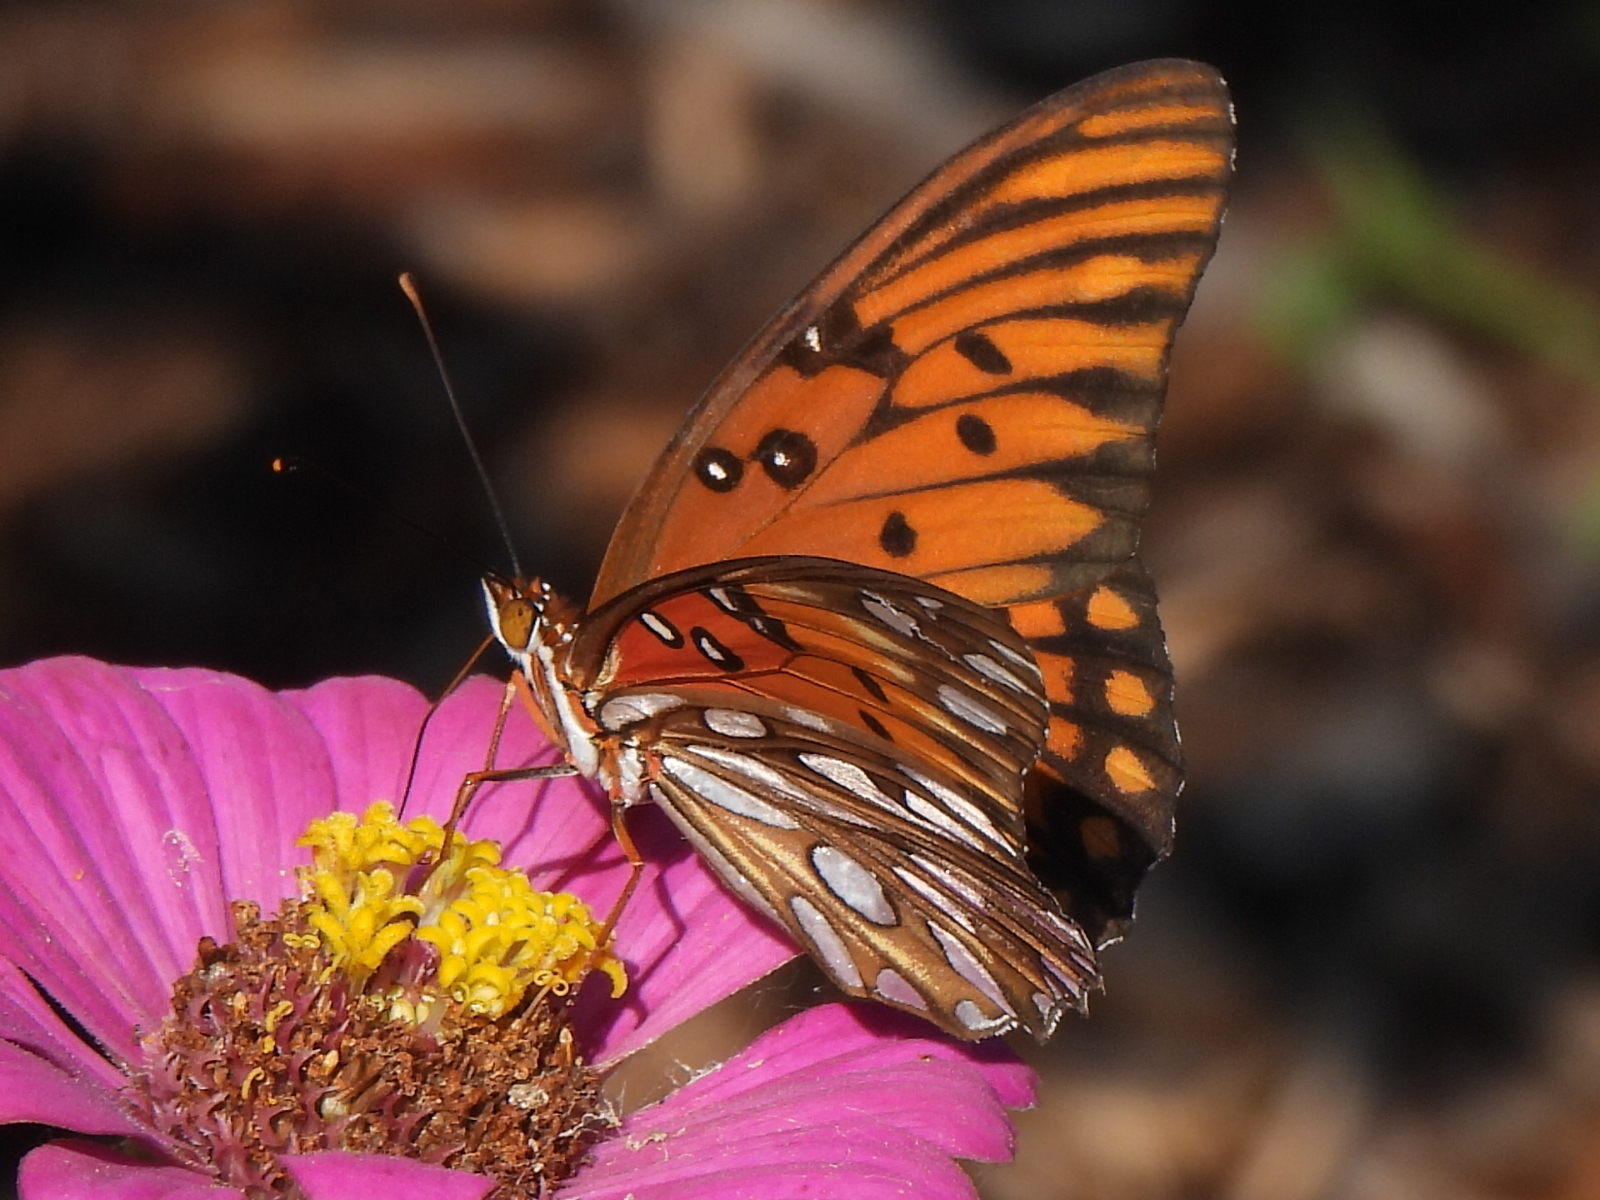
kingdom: Animalia
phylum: Arthropoda
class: Insecta
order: Lepidoptera
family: Nymphalidae
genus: Dione
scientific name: Dione vanillae
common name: Gulf fritillary
